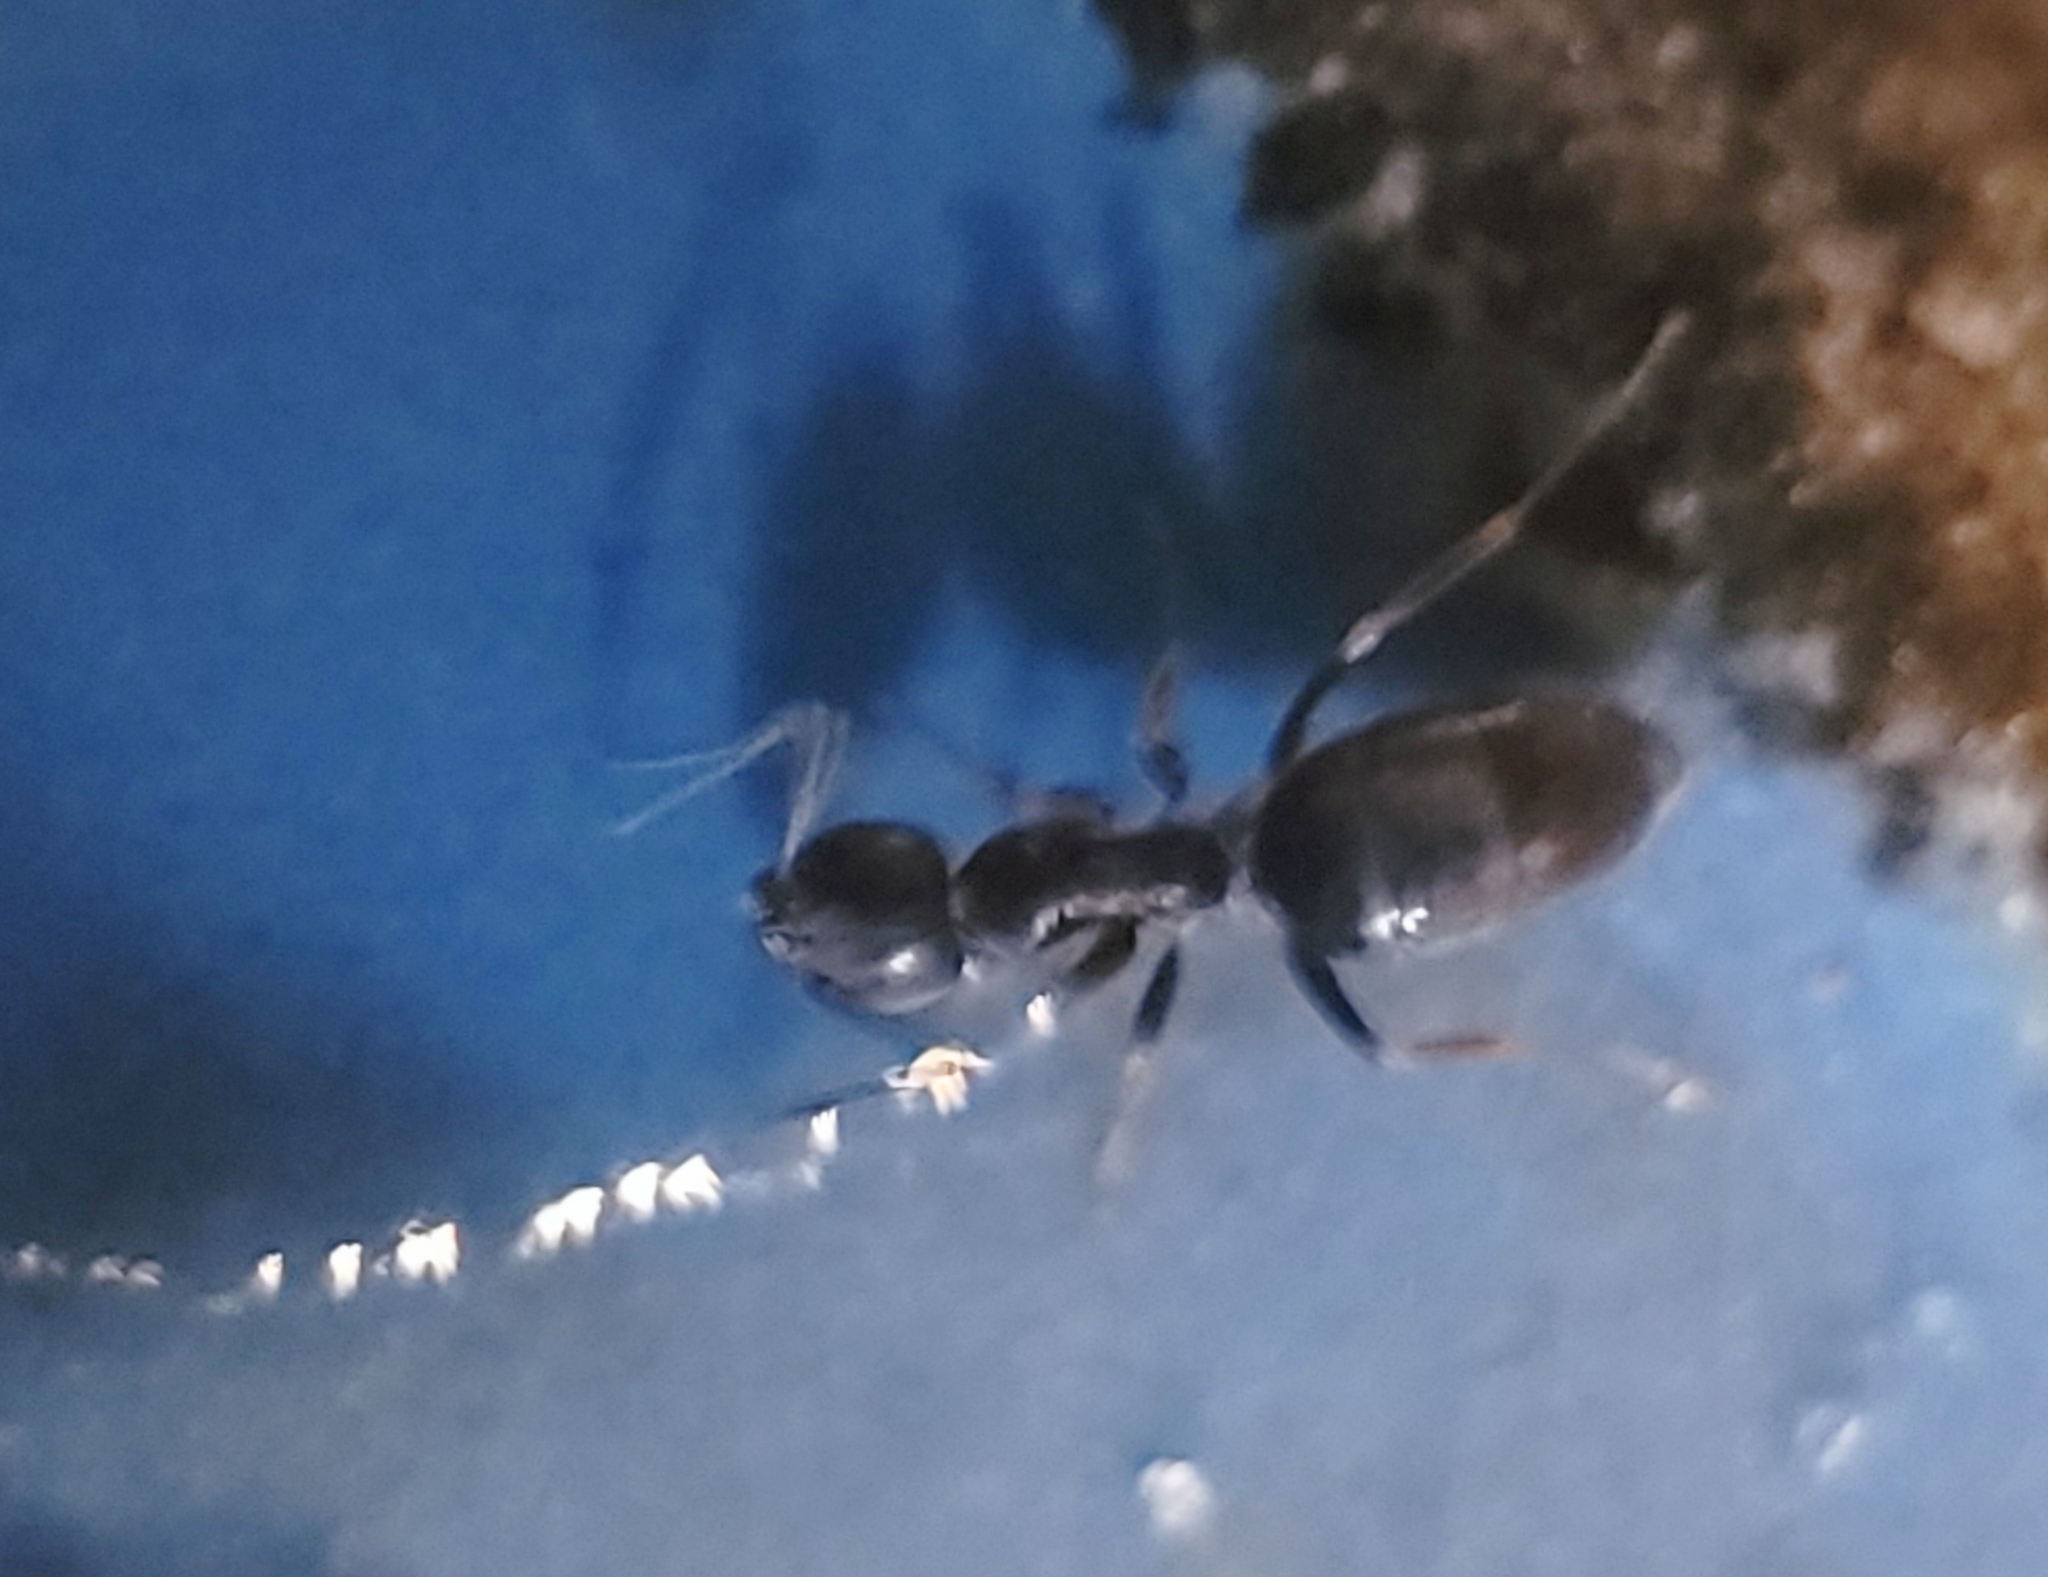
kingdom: Animalia
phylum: Arthropoda
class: Insecta
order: Hymenoptera
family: Formicidae
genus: Tapinoma
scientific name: Tapinoma sessile
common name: Odorous house ant
